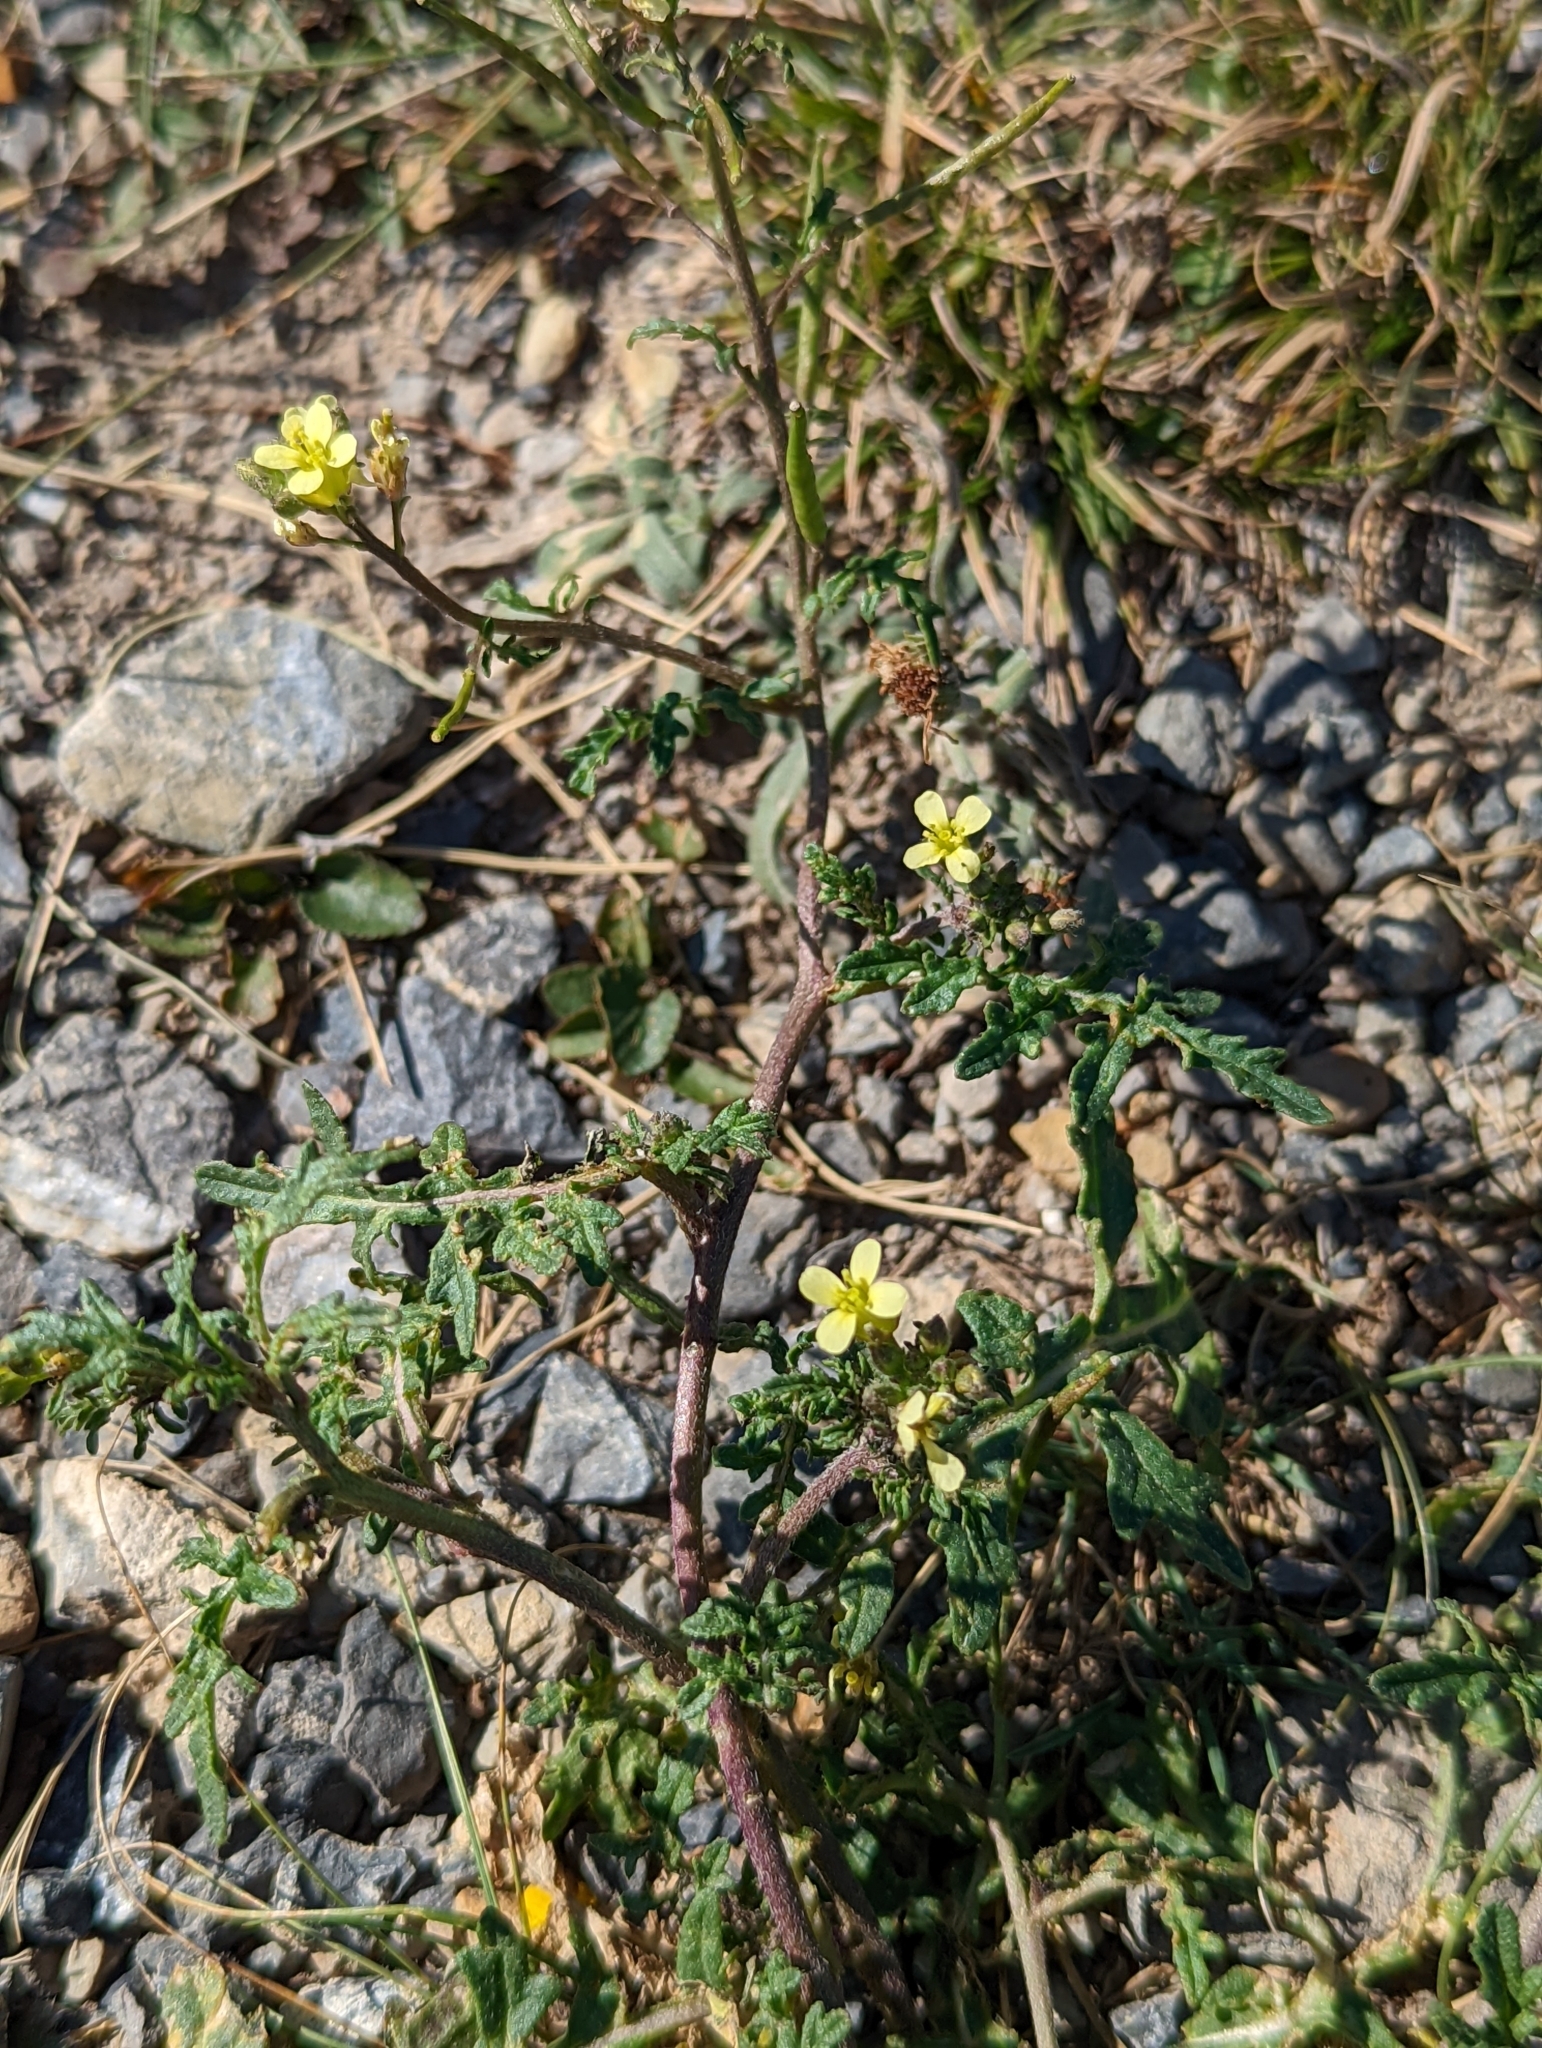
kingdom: Plantae
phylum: Tracheophyta
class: Magnoliopsida
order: Brassicales
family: Brassicaceae
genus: Erucastrum
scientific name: Erucastrum gallicum
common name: Hairy rocket
